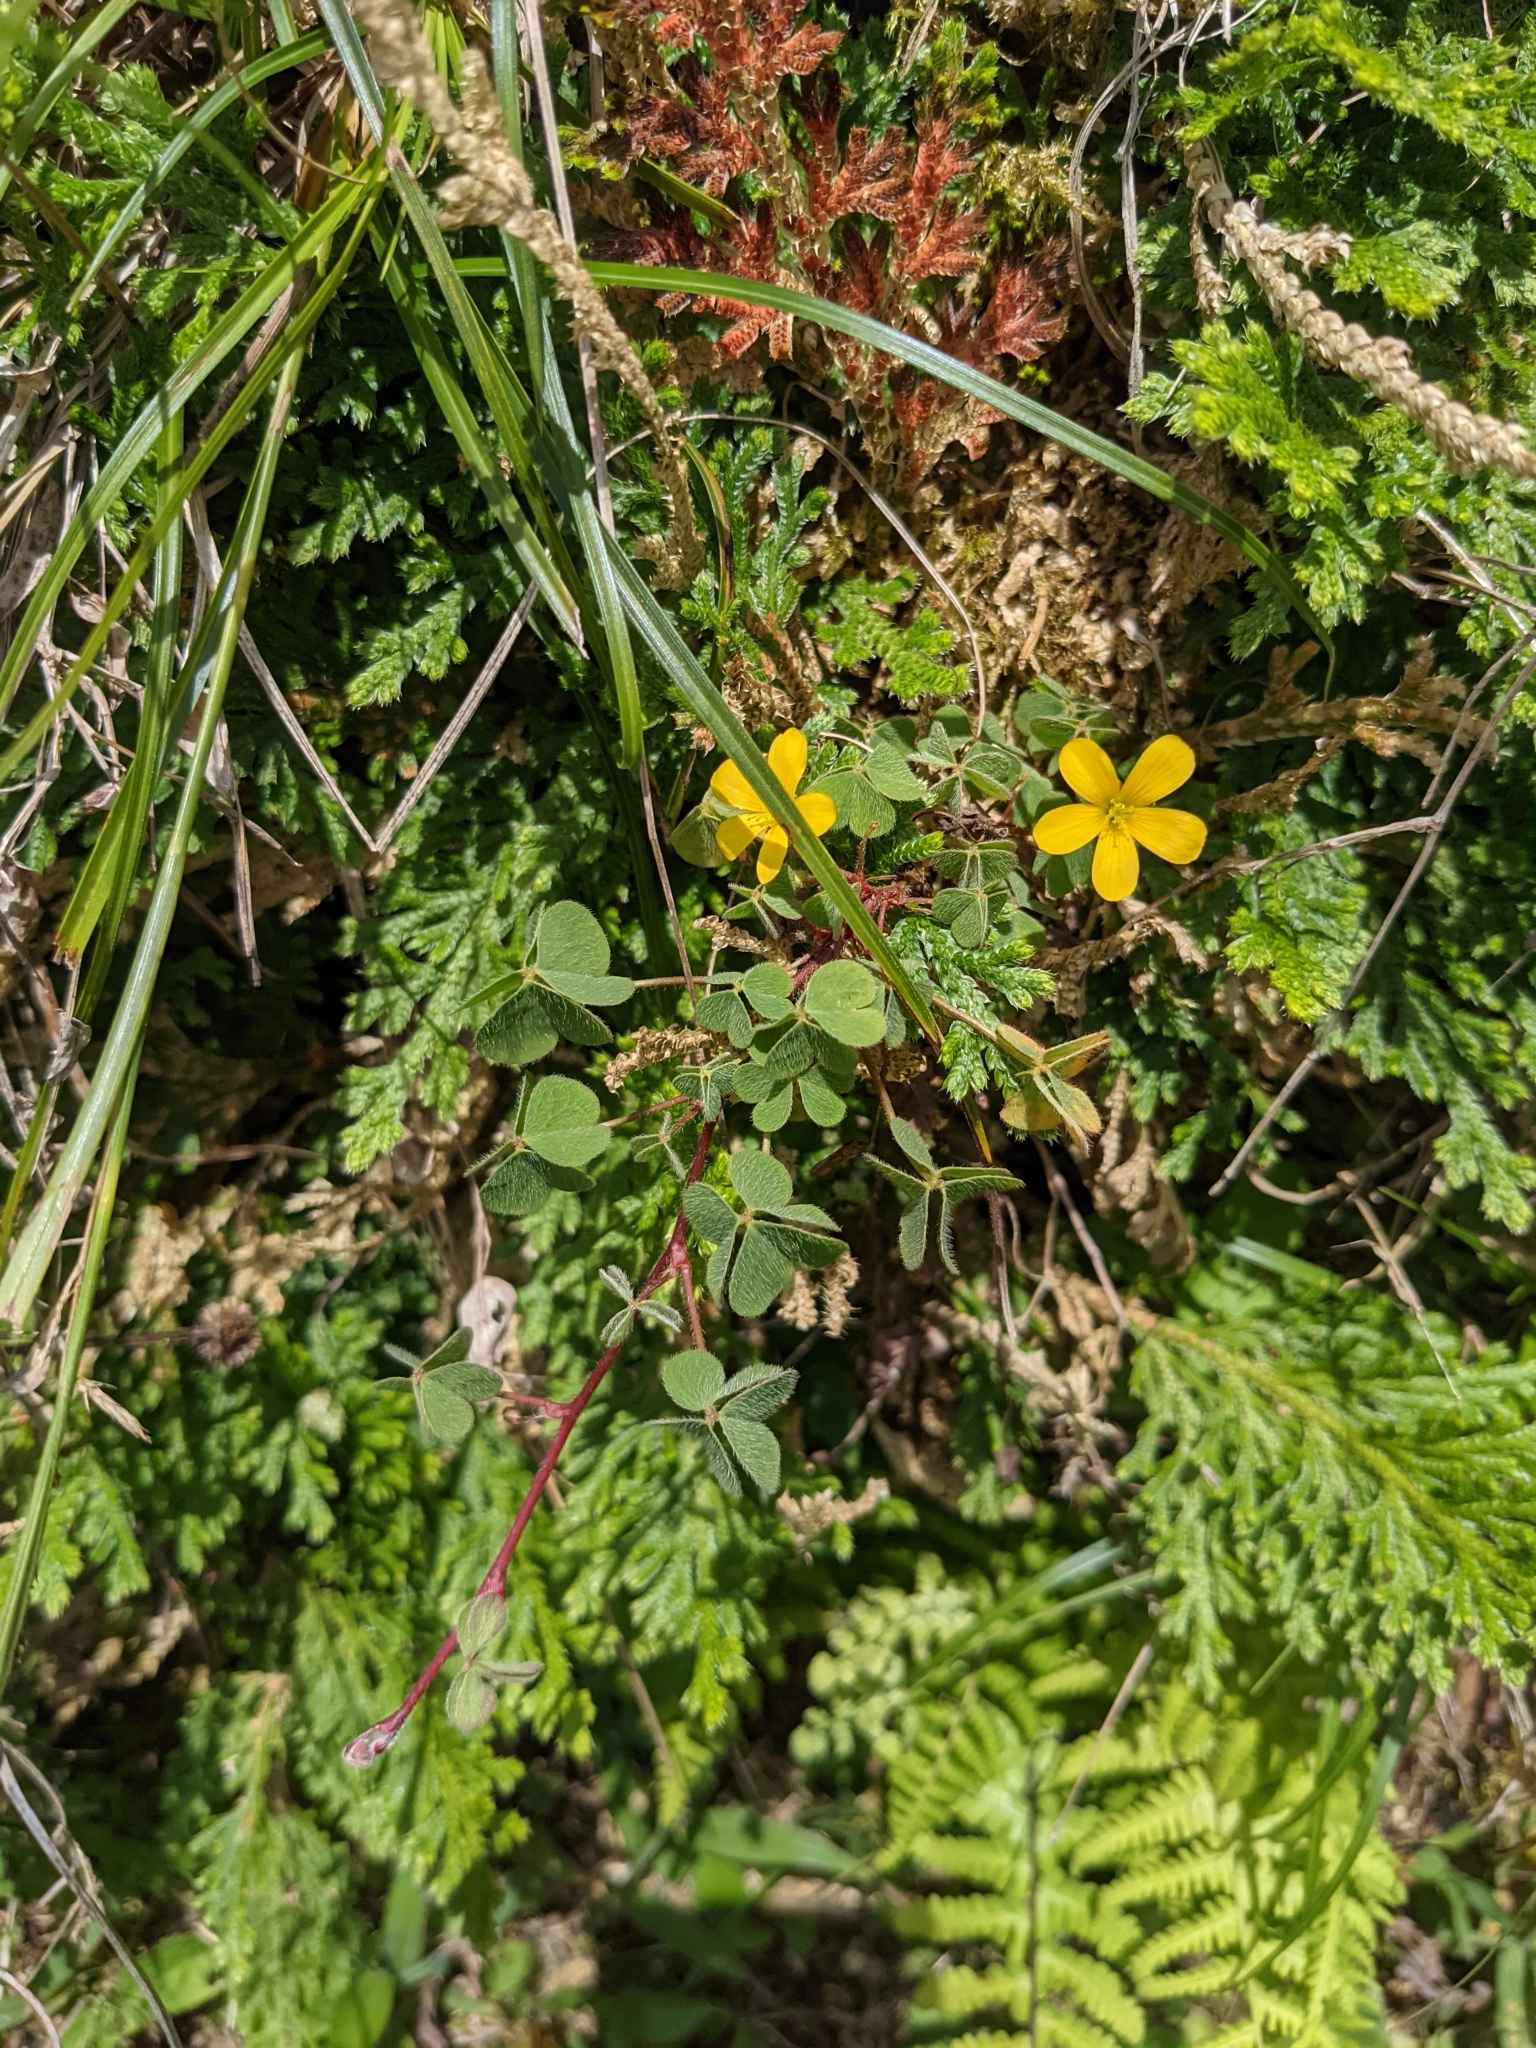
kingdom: Plantae
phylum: Tracheophyta
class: Magnoliopsida
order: Oxalidales
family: Oxalidaceae
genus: Oxalis
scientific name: Oxalis corniculata
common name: Procumbent yellow-sorrel
